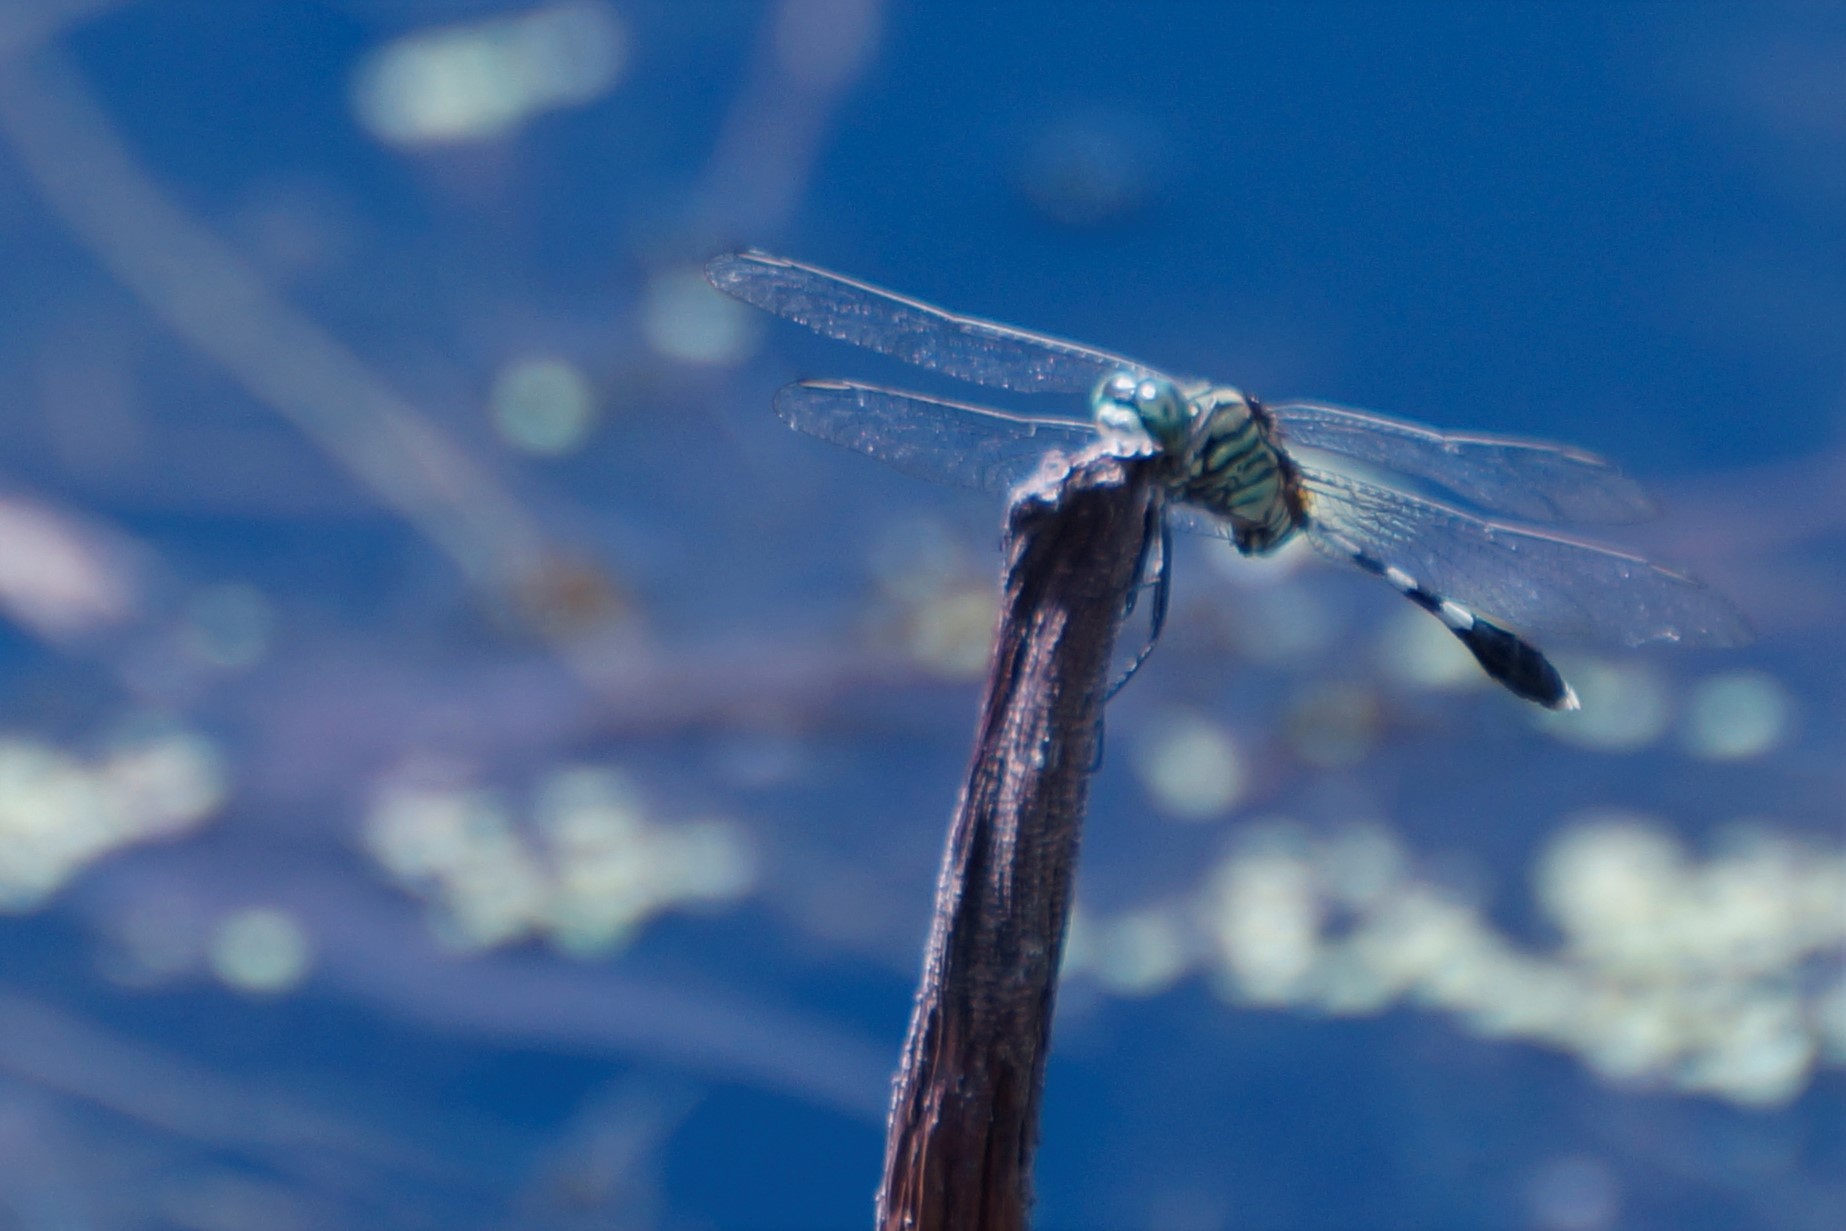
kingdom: Animalia
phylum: Arthropoda
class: Insecta
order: Odonata
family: Libellulidae
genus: Orthetrum
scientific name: Orthetrum sabina
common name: Slender skimmer
